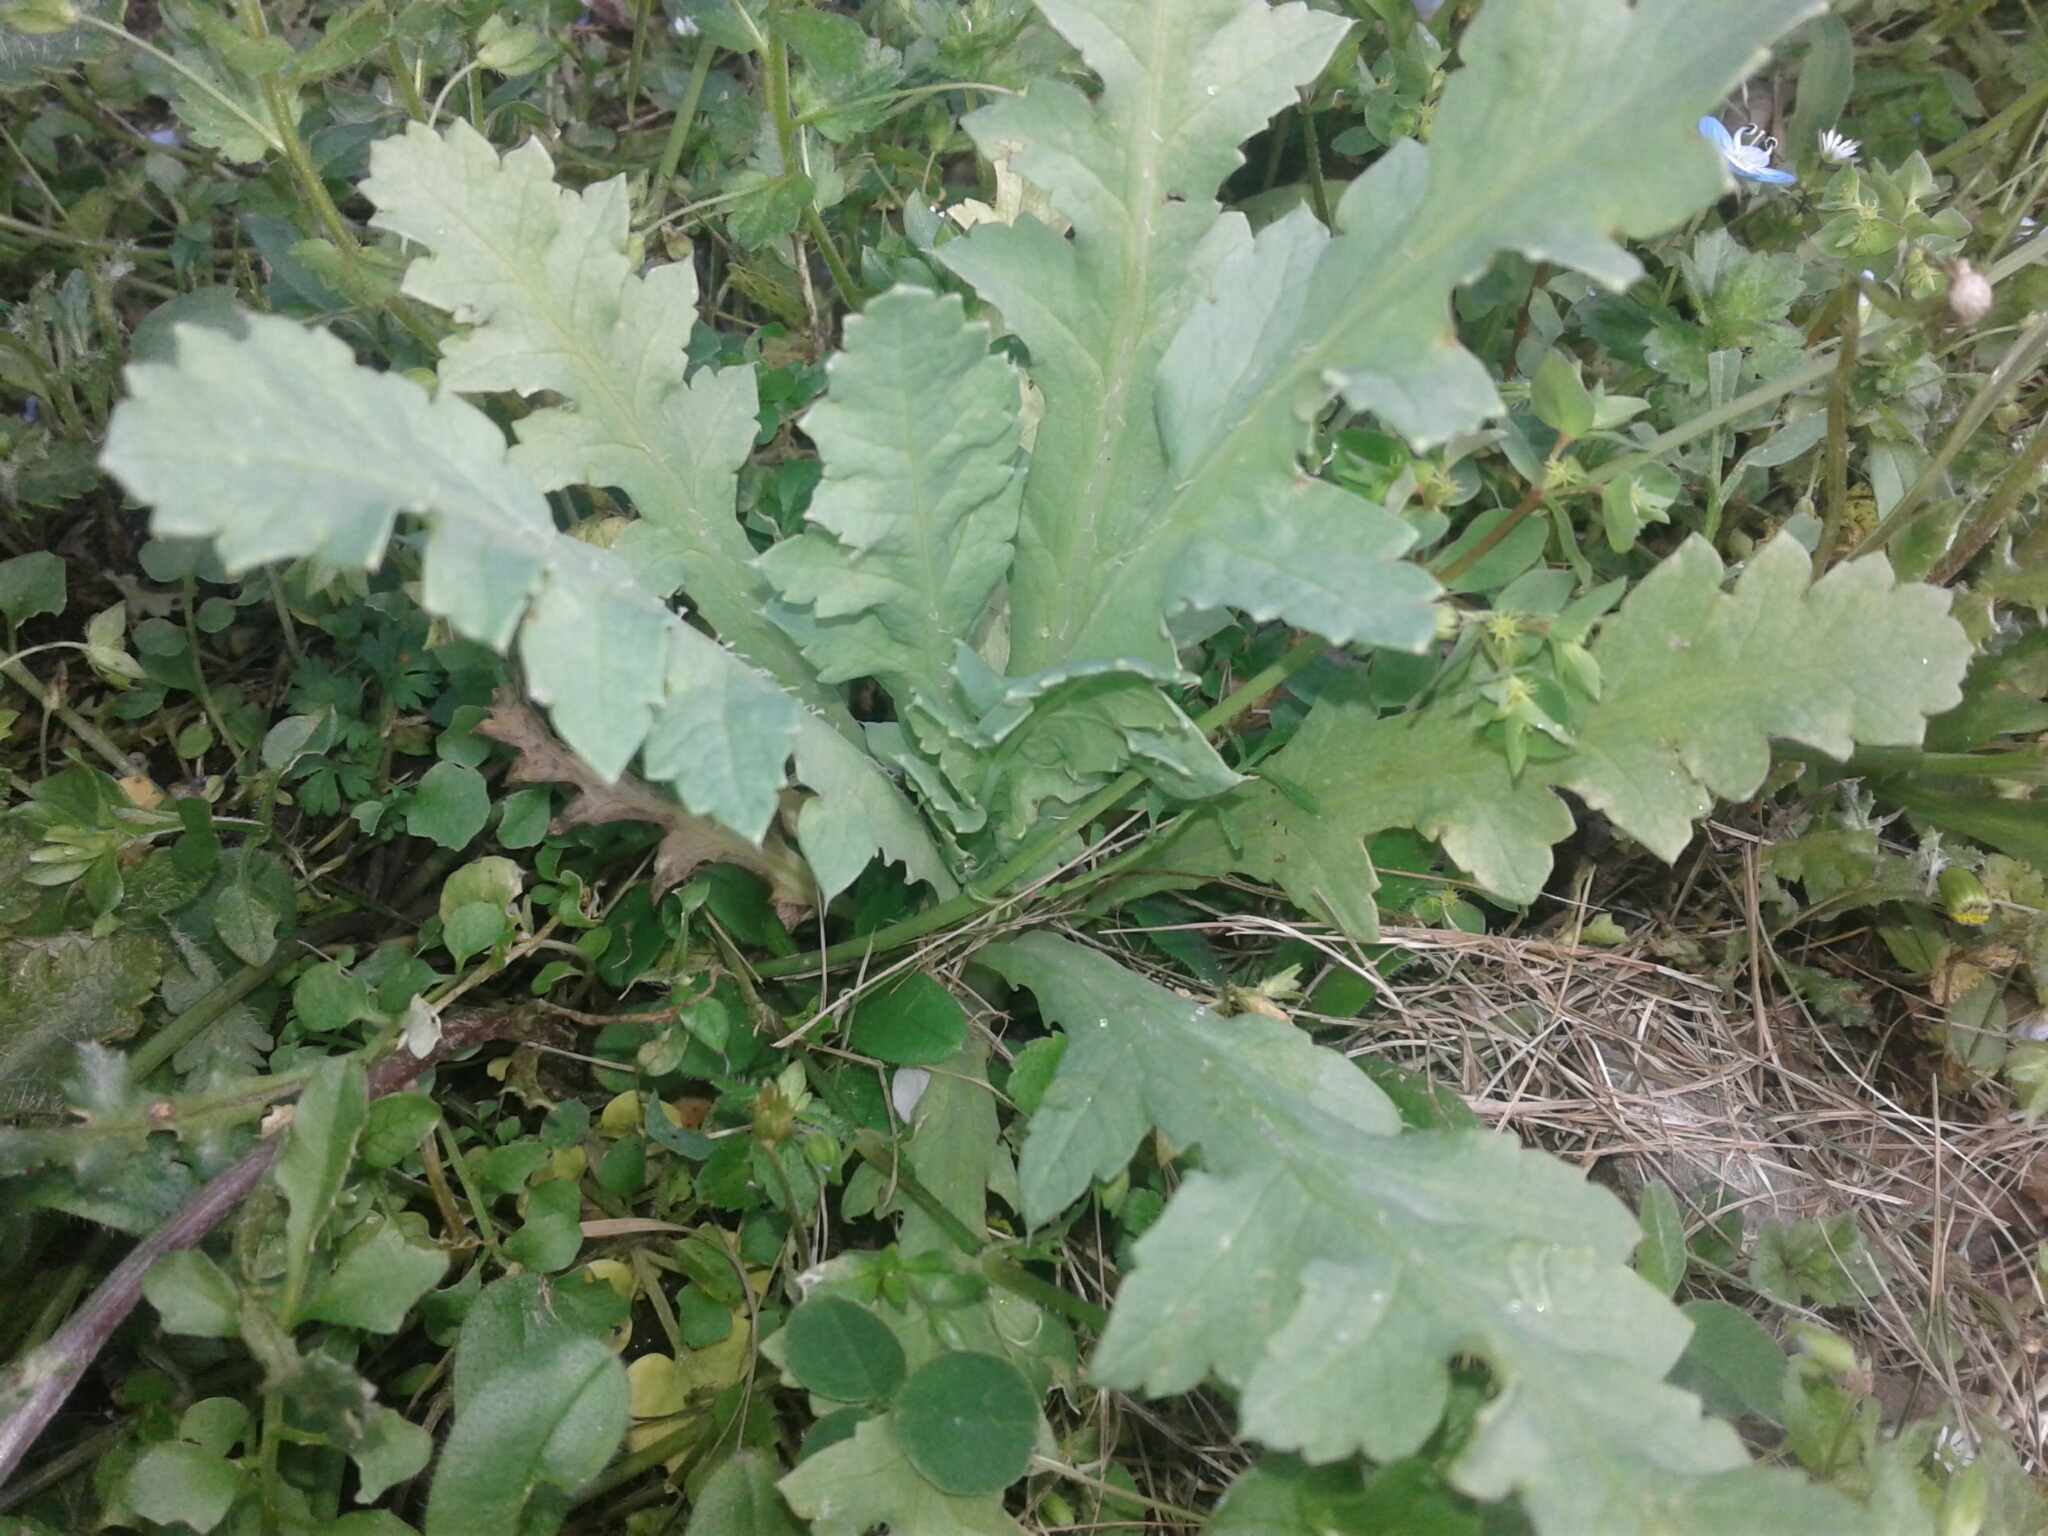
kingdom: Plantae
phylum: Tracheophyta
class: Magnoliopsida
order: Ranunculales
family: Papaveraceae
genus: Papaver
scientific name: Papaver somniferum
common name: Opium poppy
